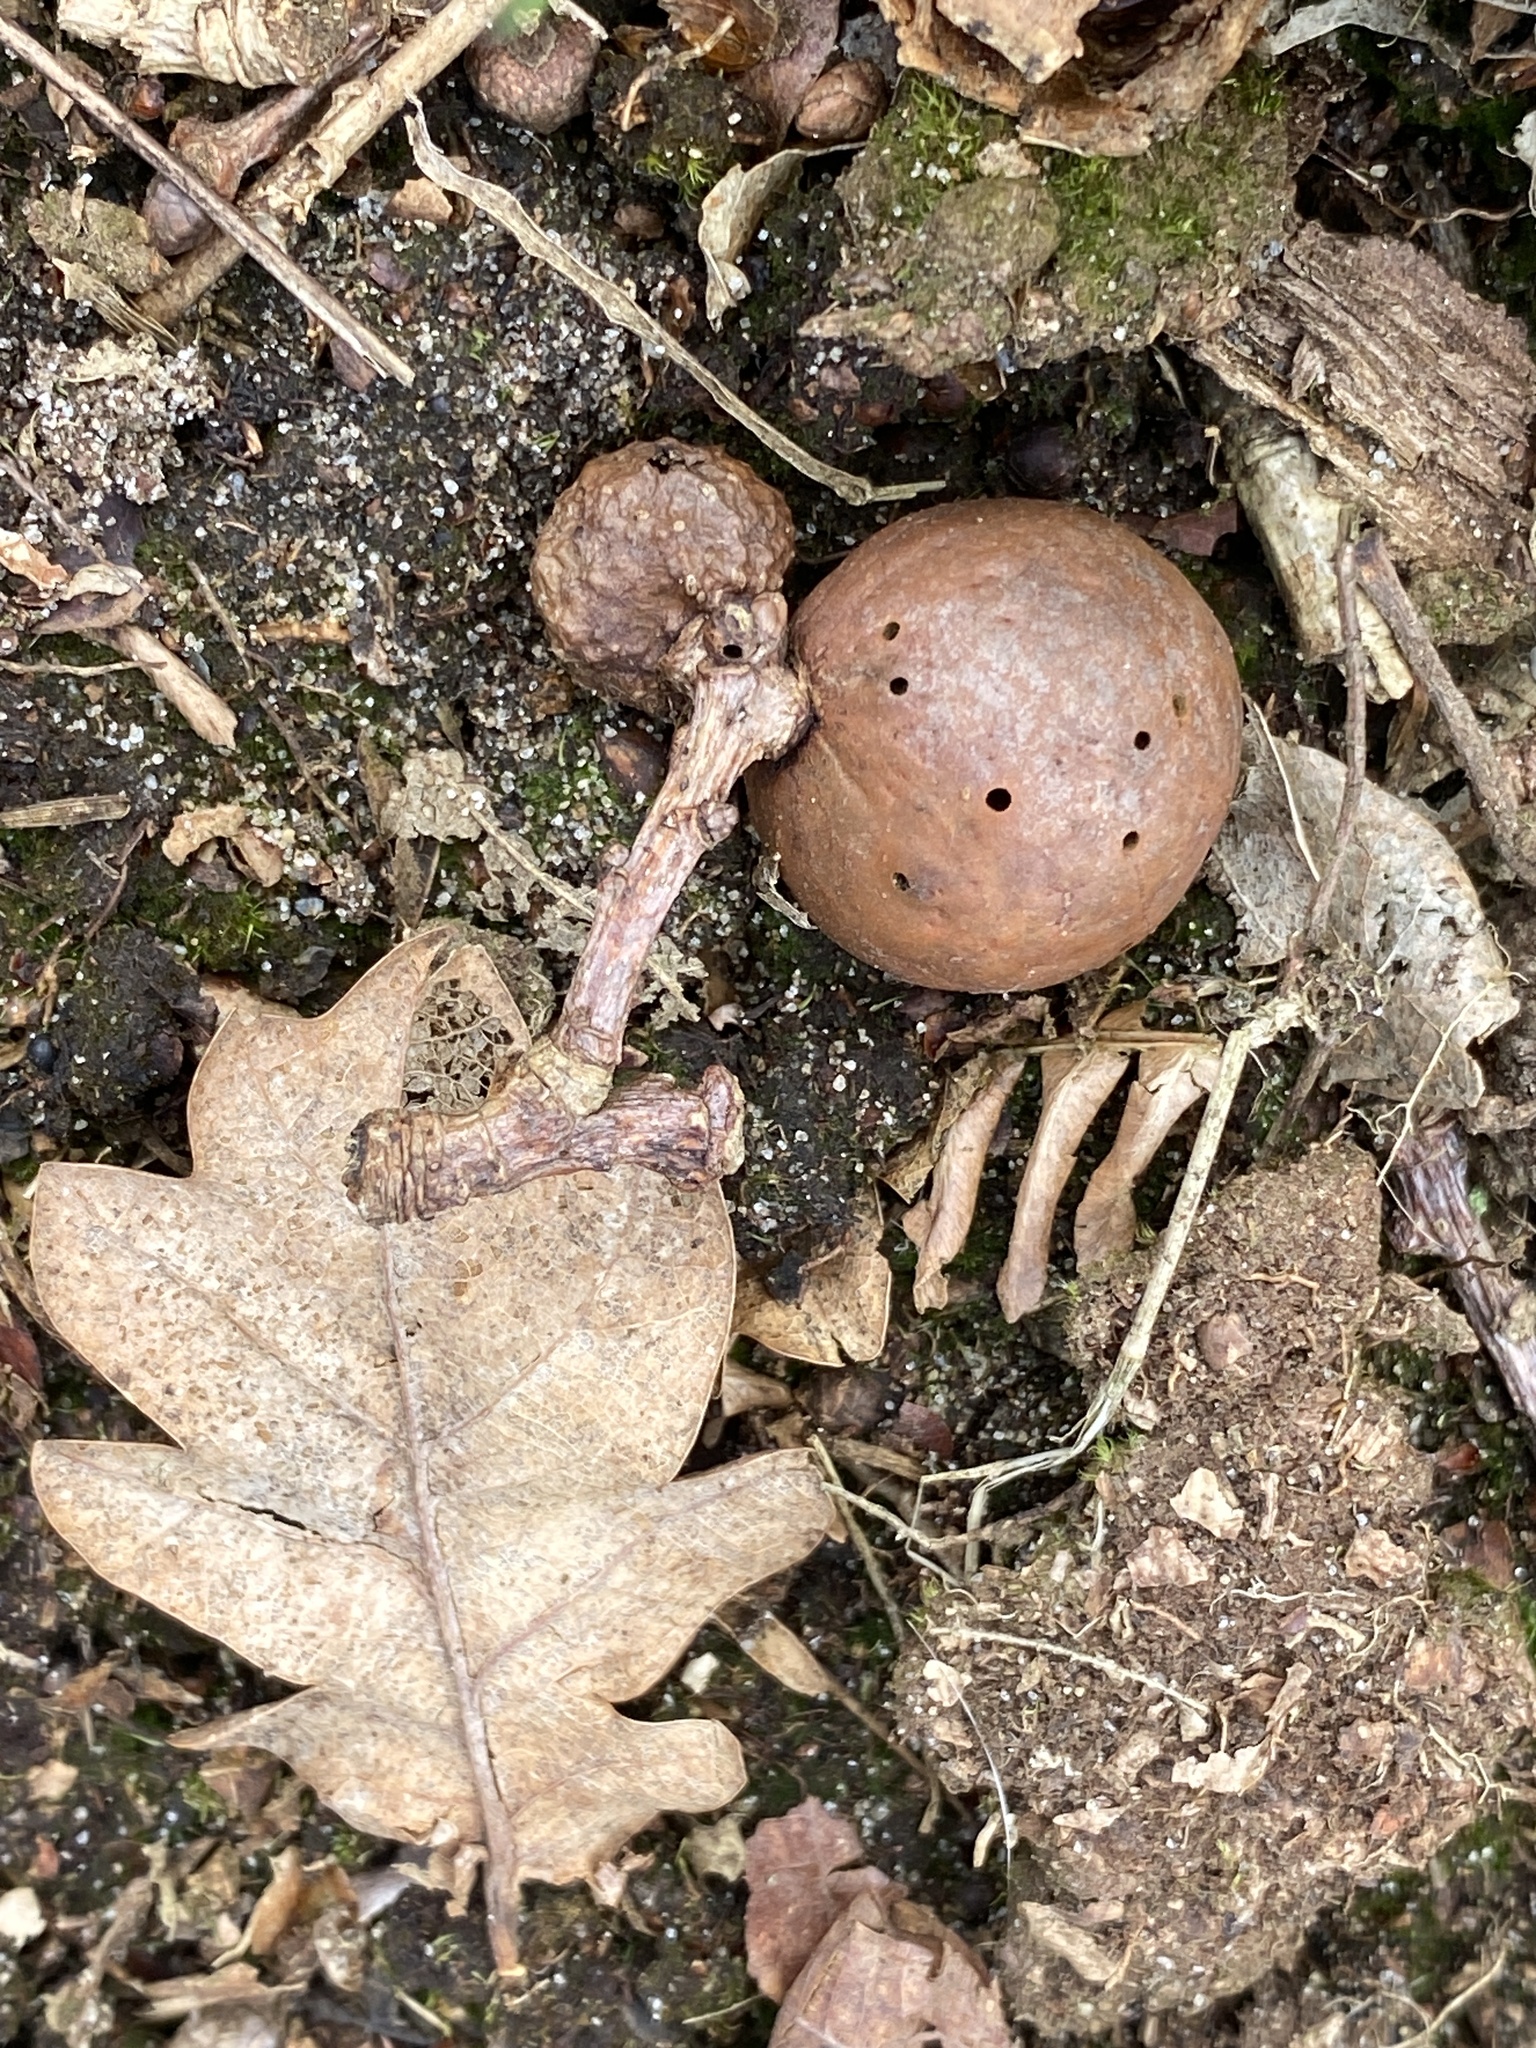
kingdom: Animalia
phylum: Arthropoda
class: Insecta
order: Hymenoptera
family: Cynipidae
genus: Andricus
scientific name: Andricus kollari
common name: Marble gall
